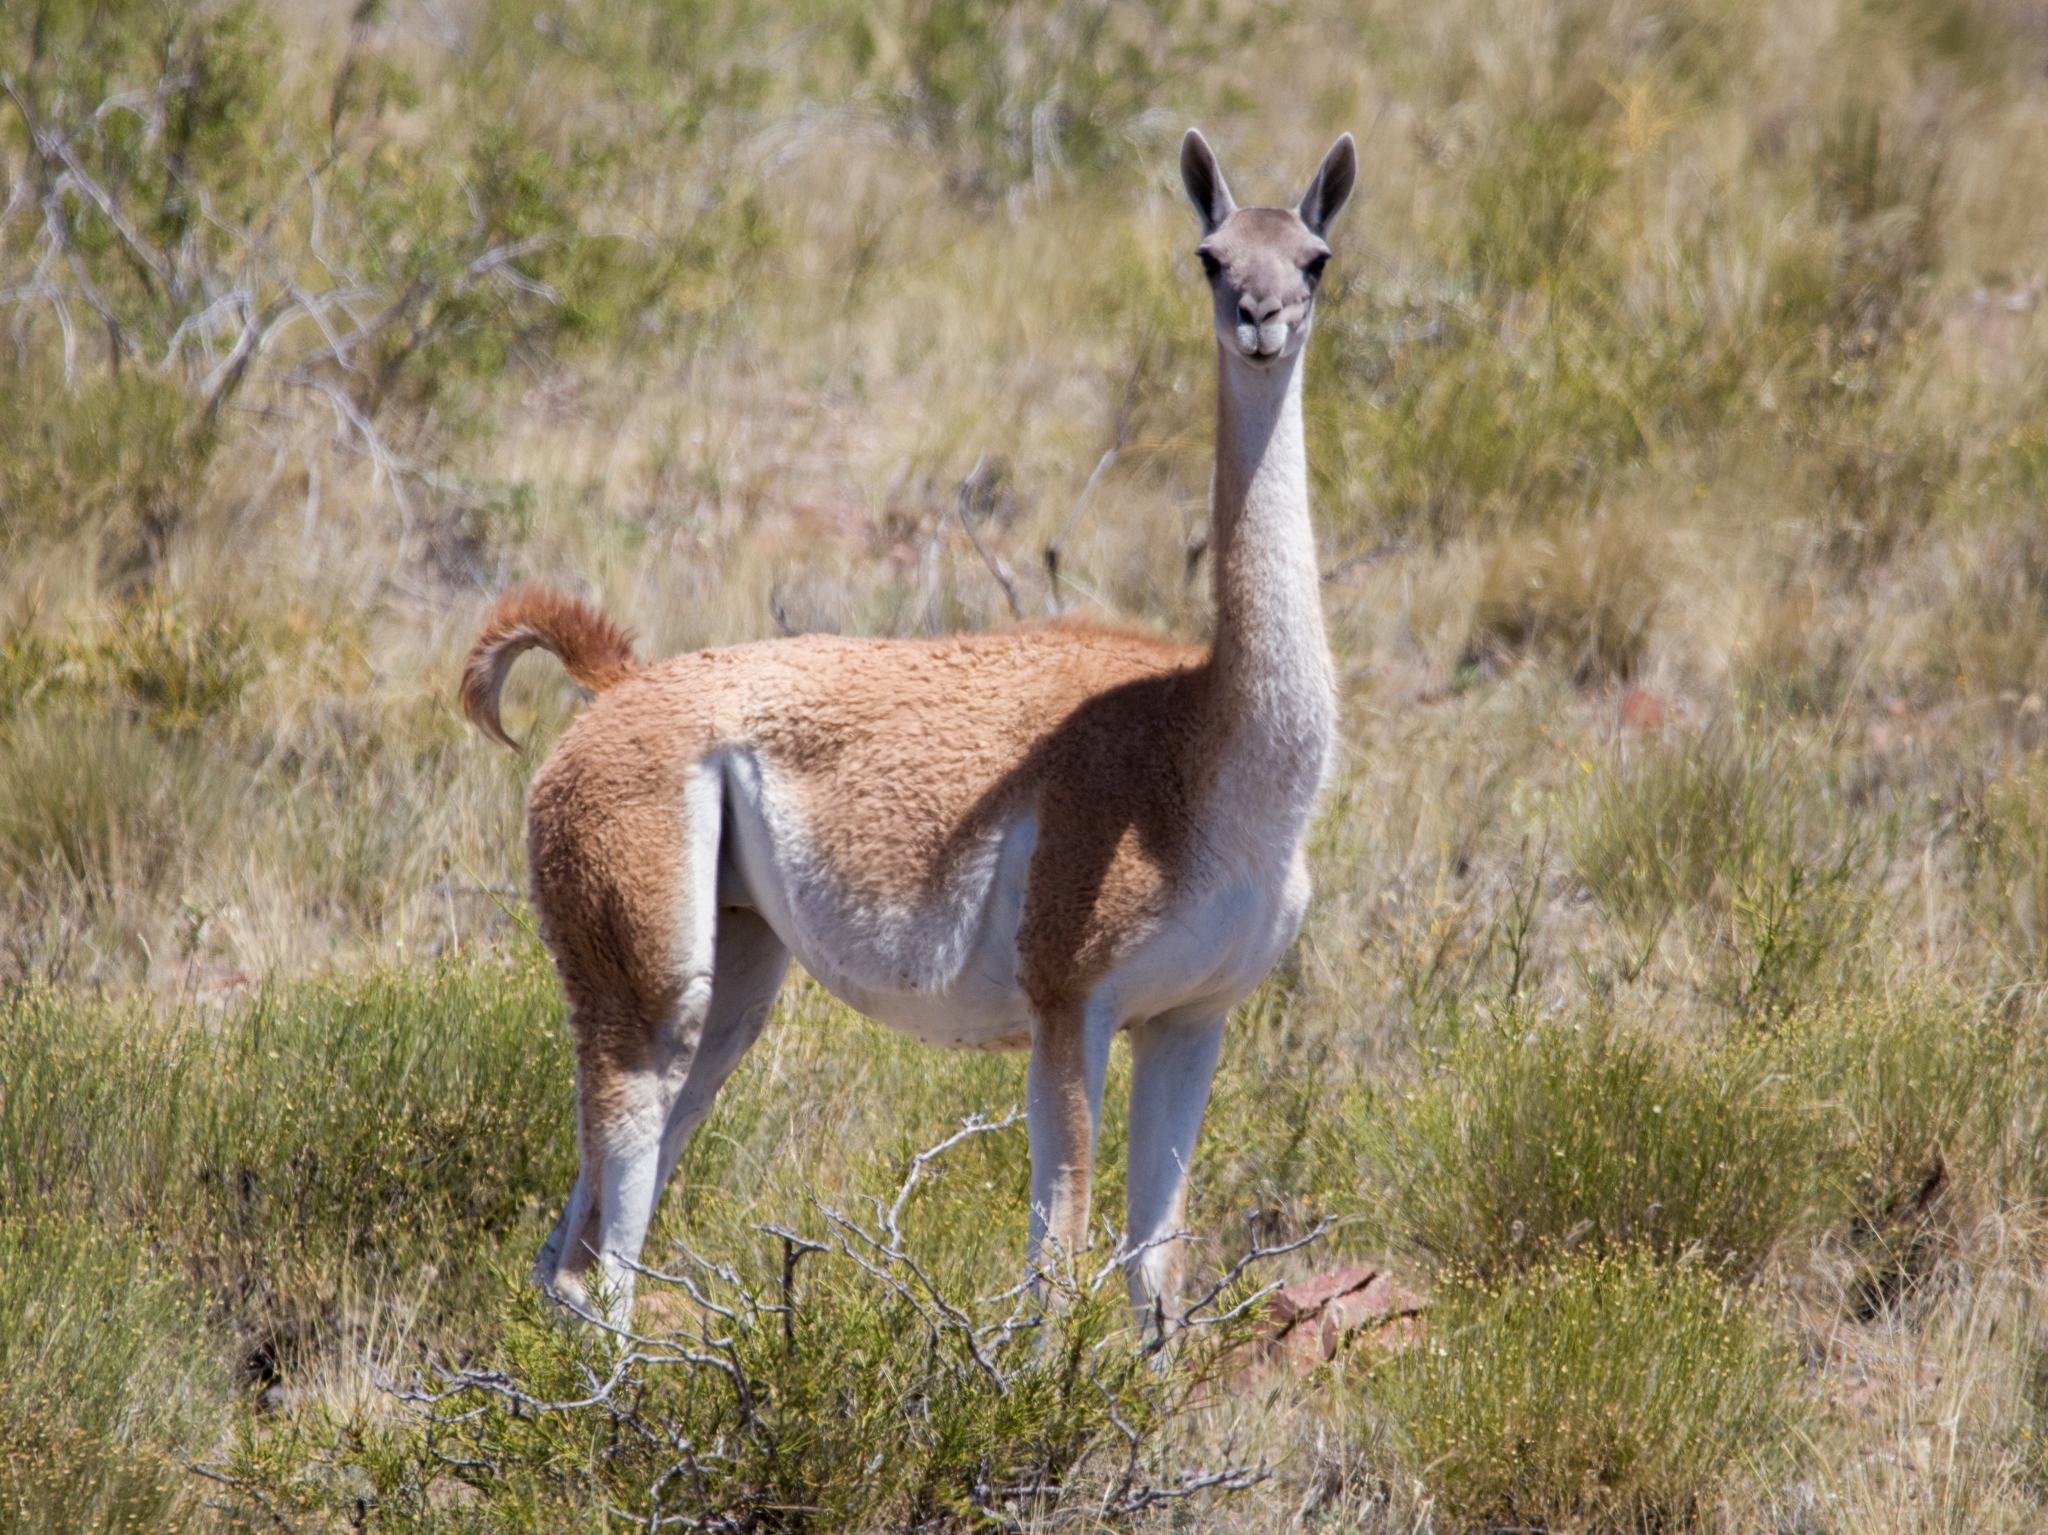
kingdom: Animalia
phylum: Chordata
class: Mammalia
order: Artiodactyla
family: Camelidae
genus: Lama
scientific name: Lama glama
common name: Llama
